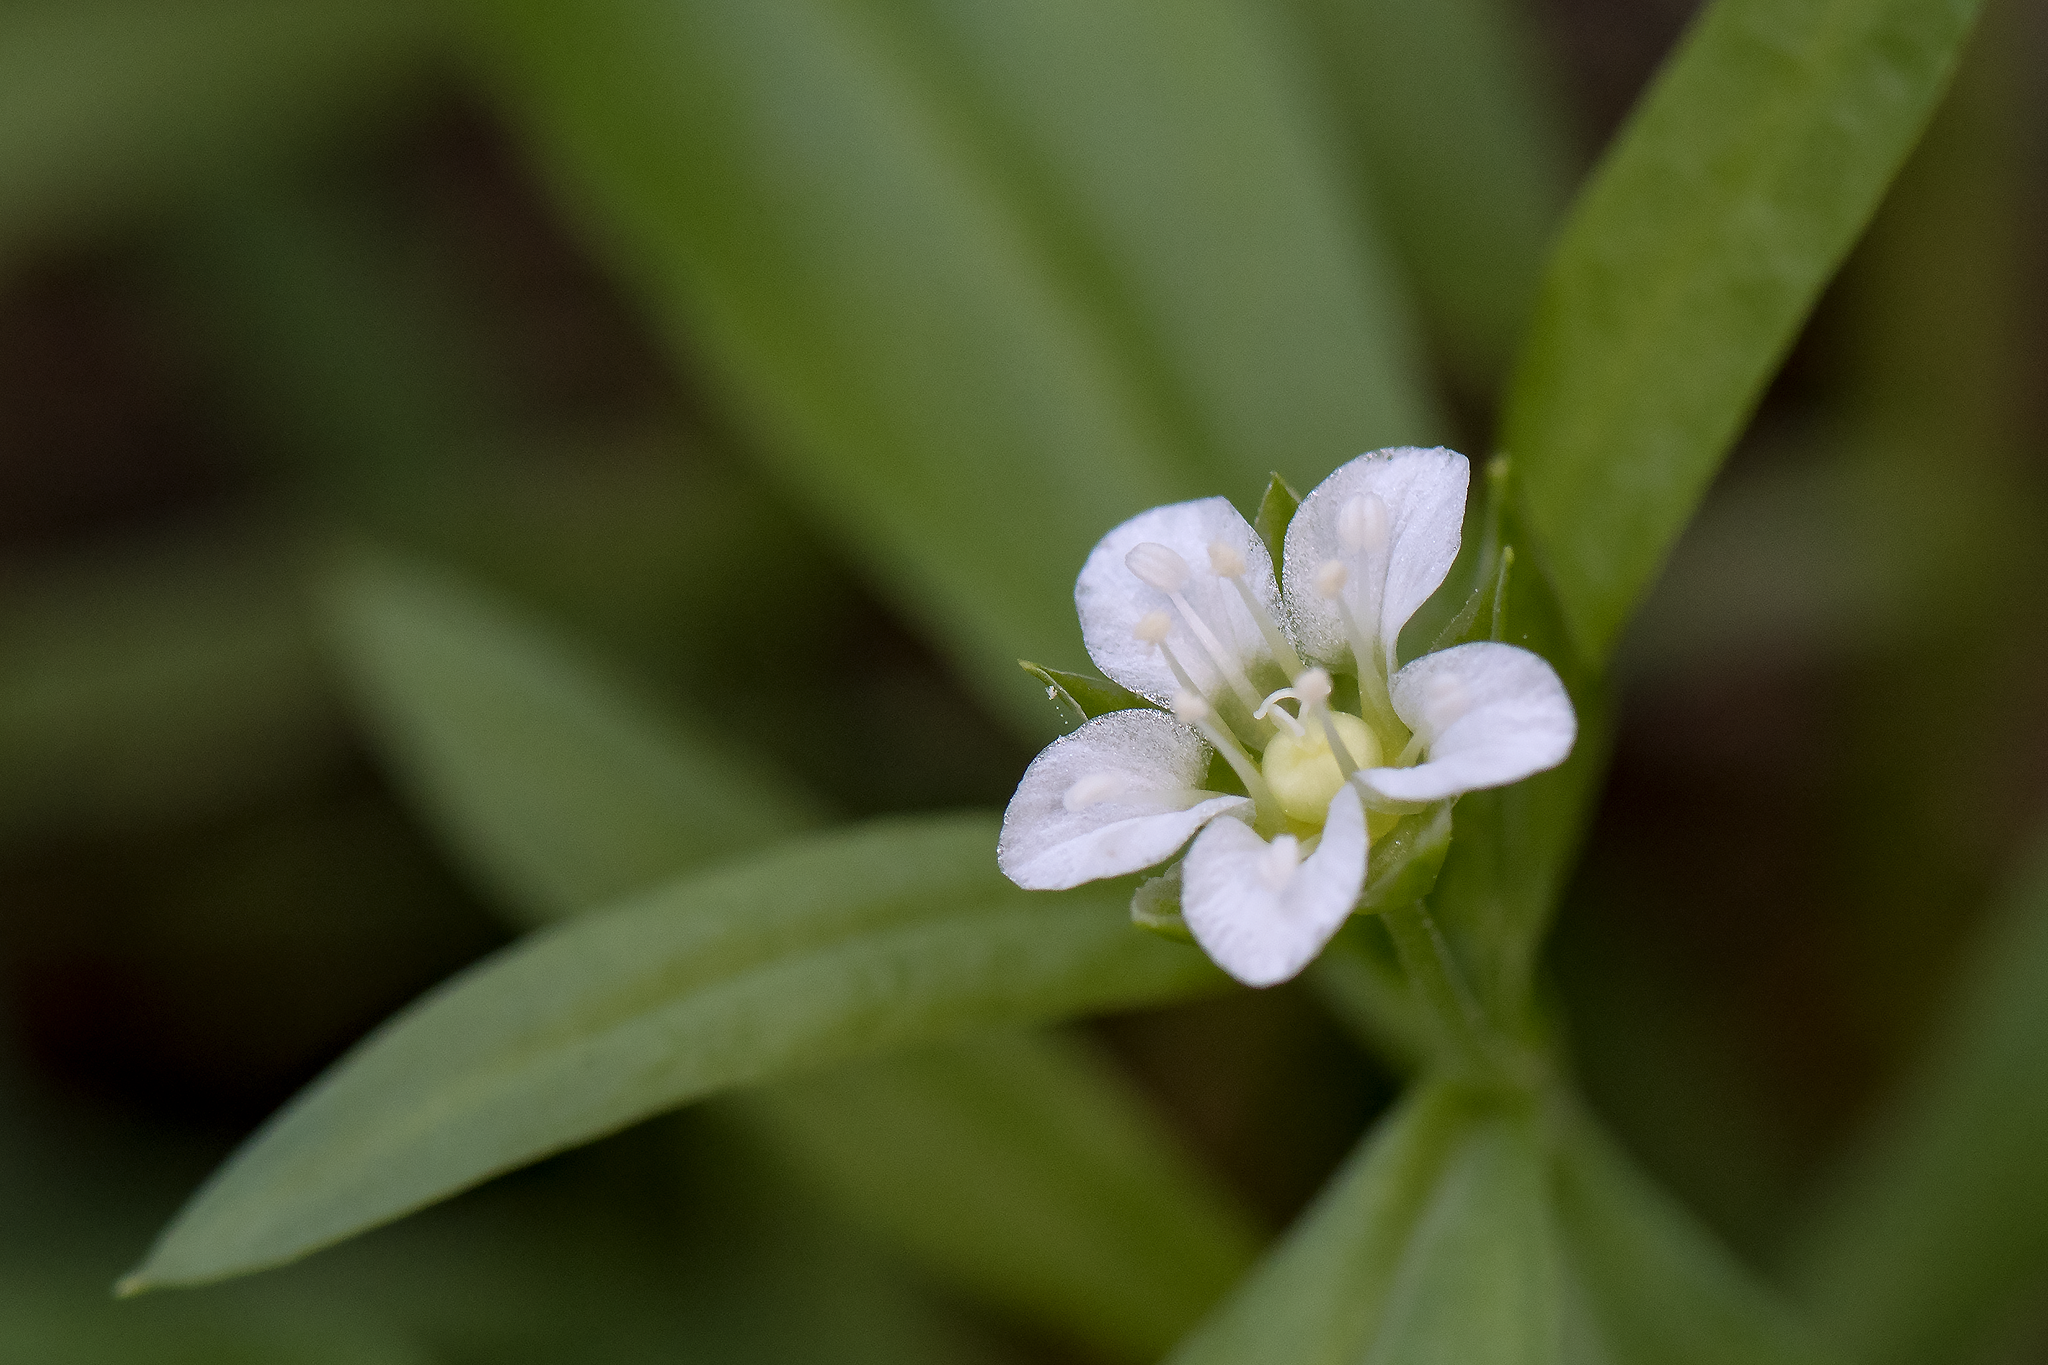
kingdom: Plantae
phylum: Tracheophyta
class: Magnoliopsida
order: Caryophyllales
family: Caryophyllaceae
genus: Moehringia
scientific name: Moehringia macrophylla
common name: Big-leaf sandwort
